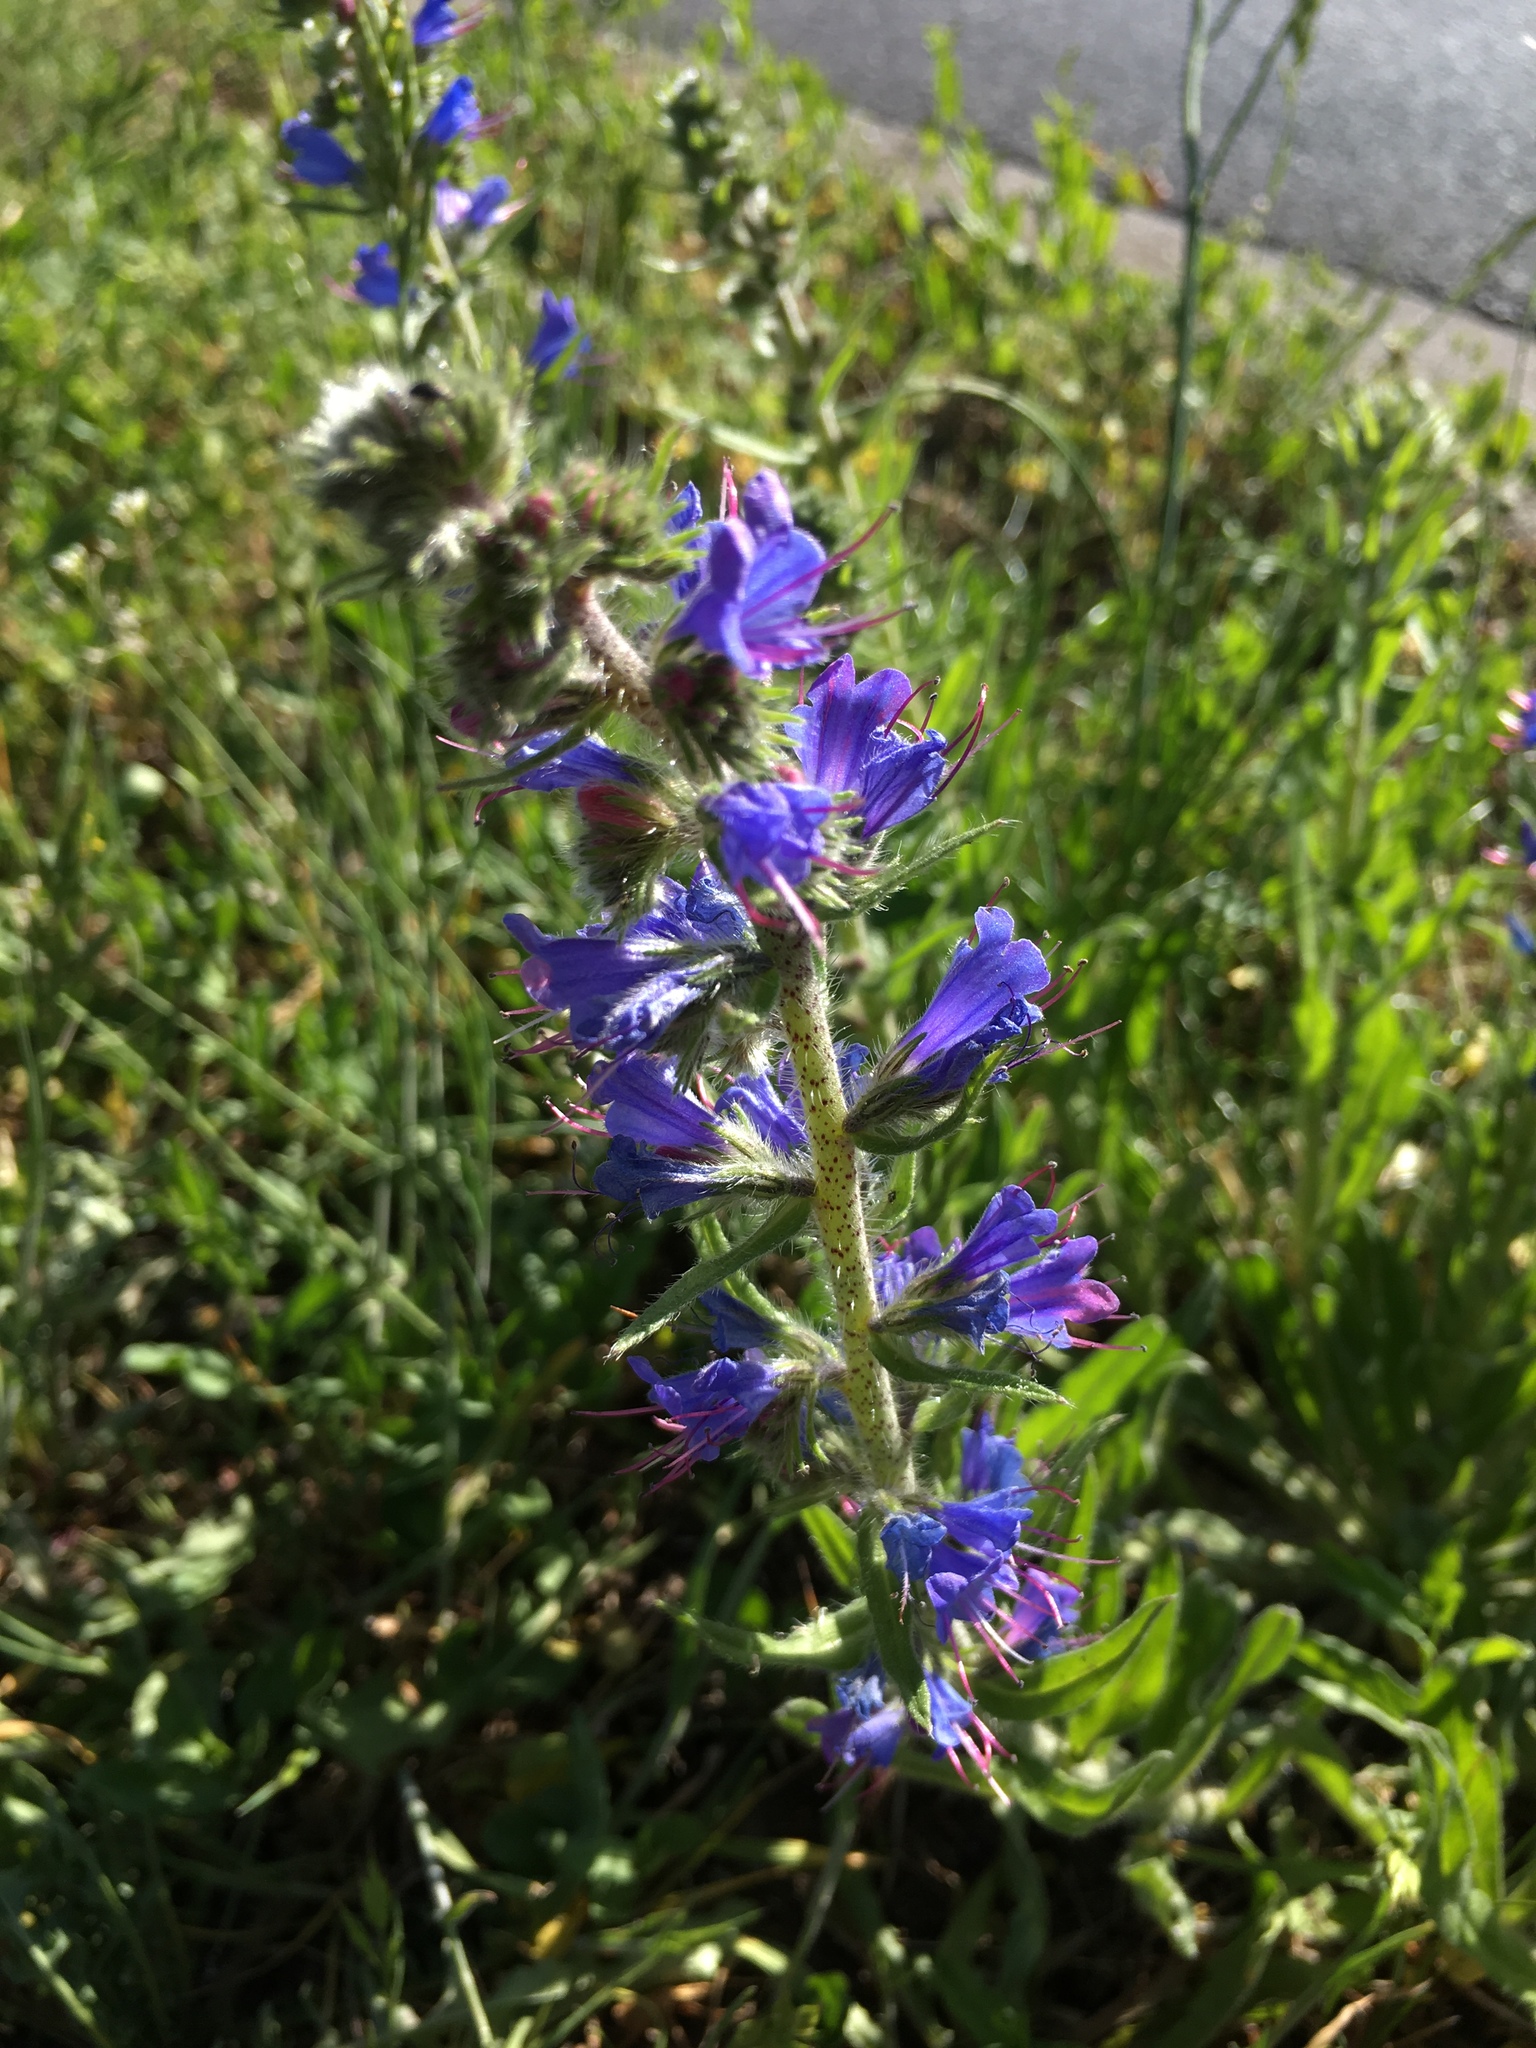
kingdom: Plantae
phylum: Tracheophyta
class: Magnoliopsida
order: Boraginales
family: Boraginaceae
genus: Echium
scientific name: Echium vulgare
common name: Common viper's bugloss
